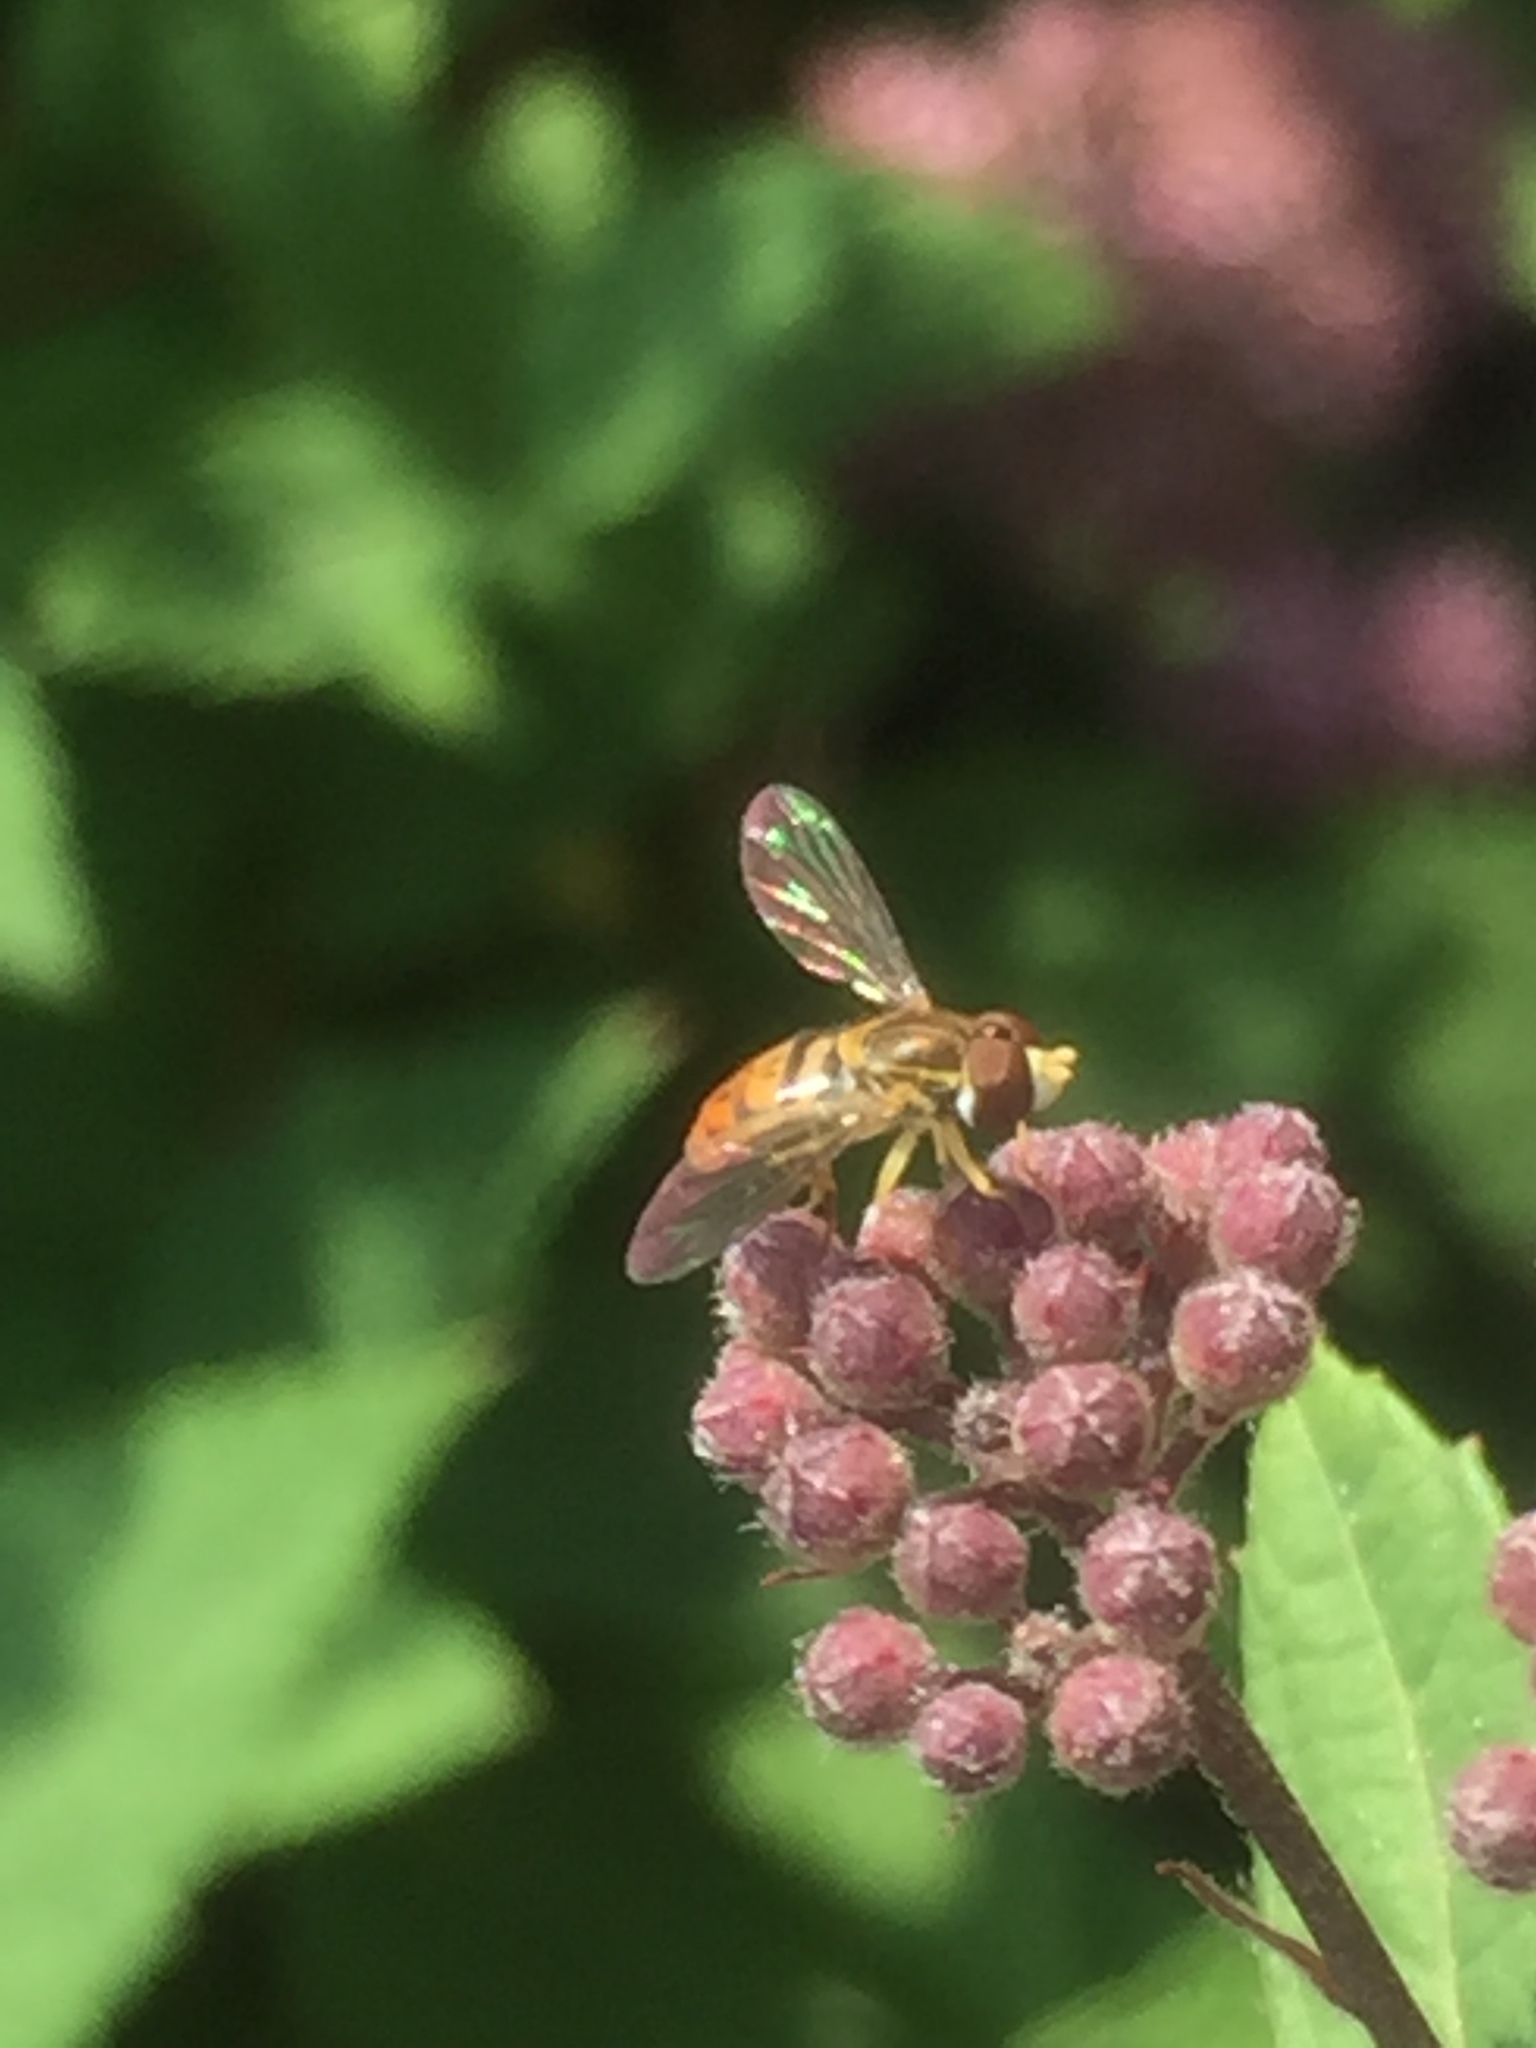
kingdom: Animalia
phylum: Arthropoda
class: Insecta
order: Diptera
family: Syrphidae
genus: Toxomerus
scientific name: Toxomerus marginatus
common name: Syrphid fly
